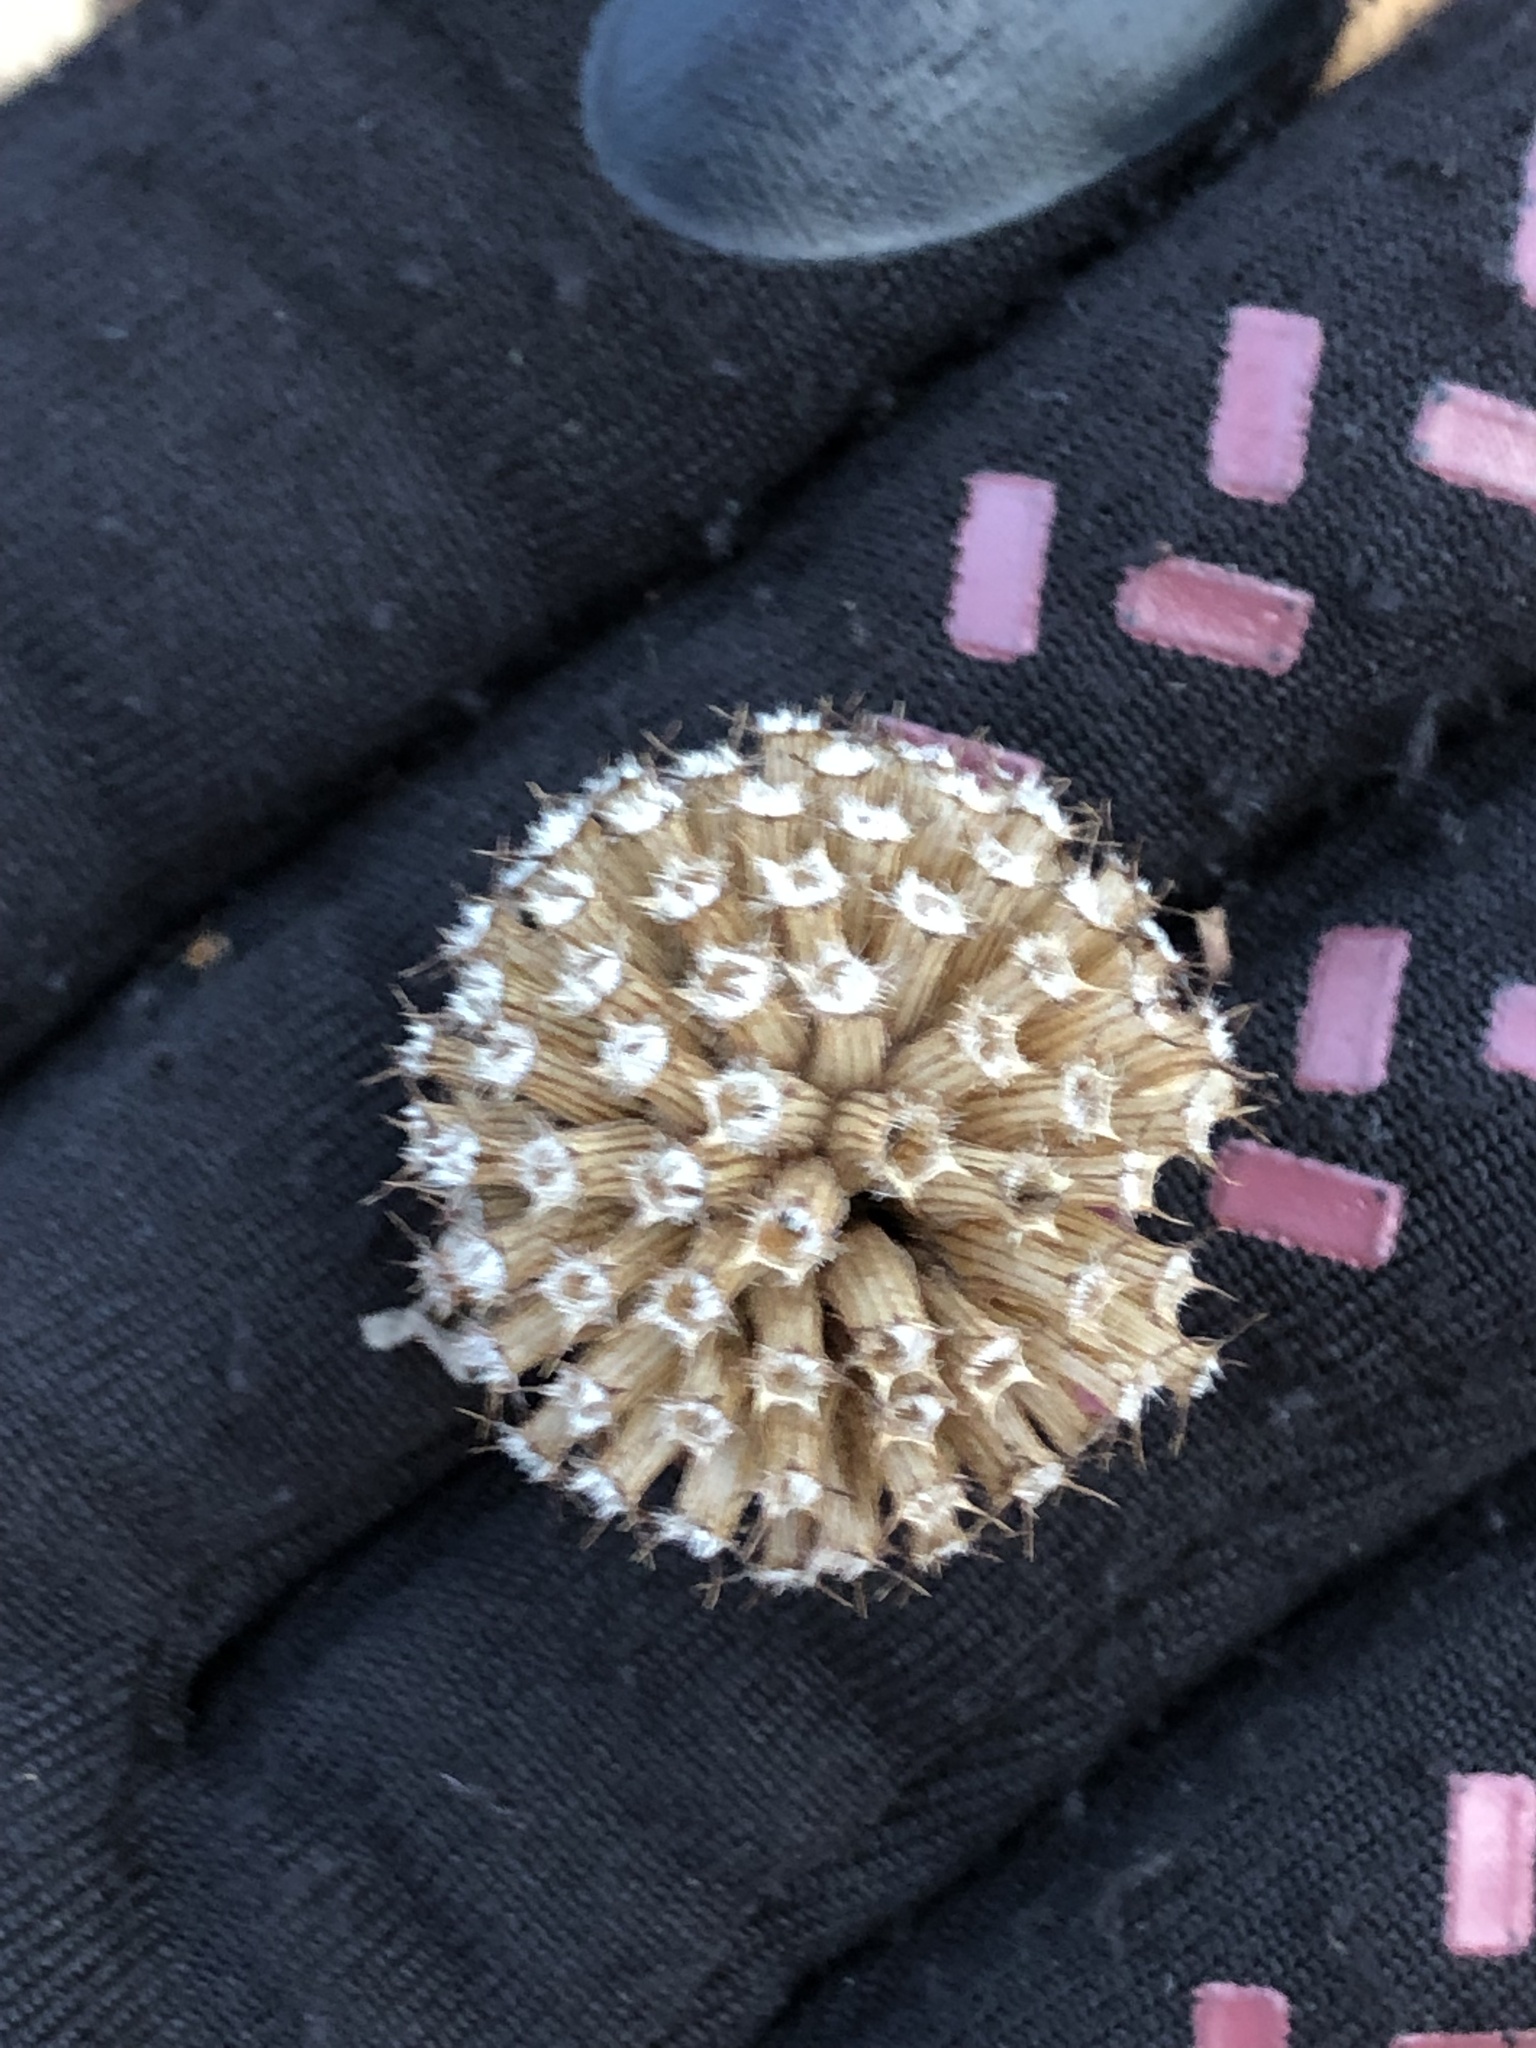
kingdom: Plantae
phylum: Tracheophyta
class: Magnoliopsida
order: Lamiales
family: Lamiaceae
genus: Monarda
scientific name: Monarda bradburiana
